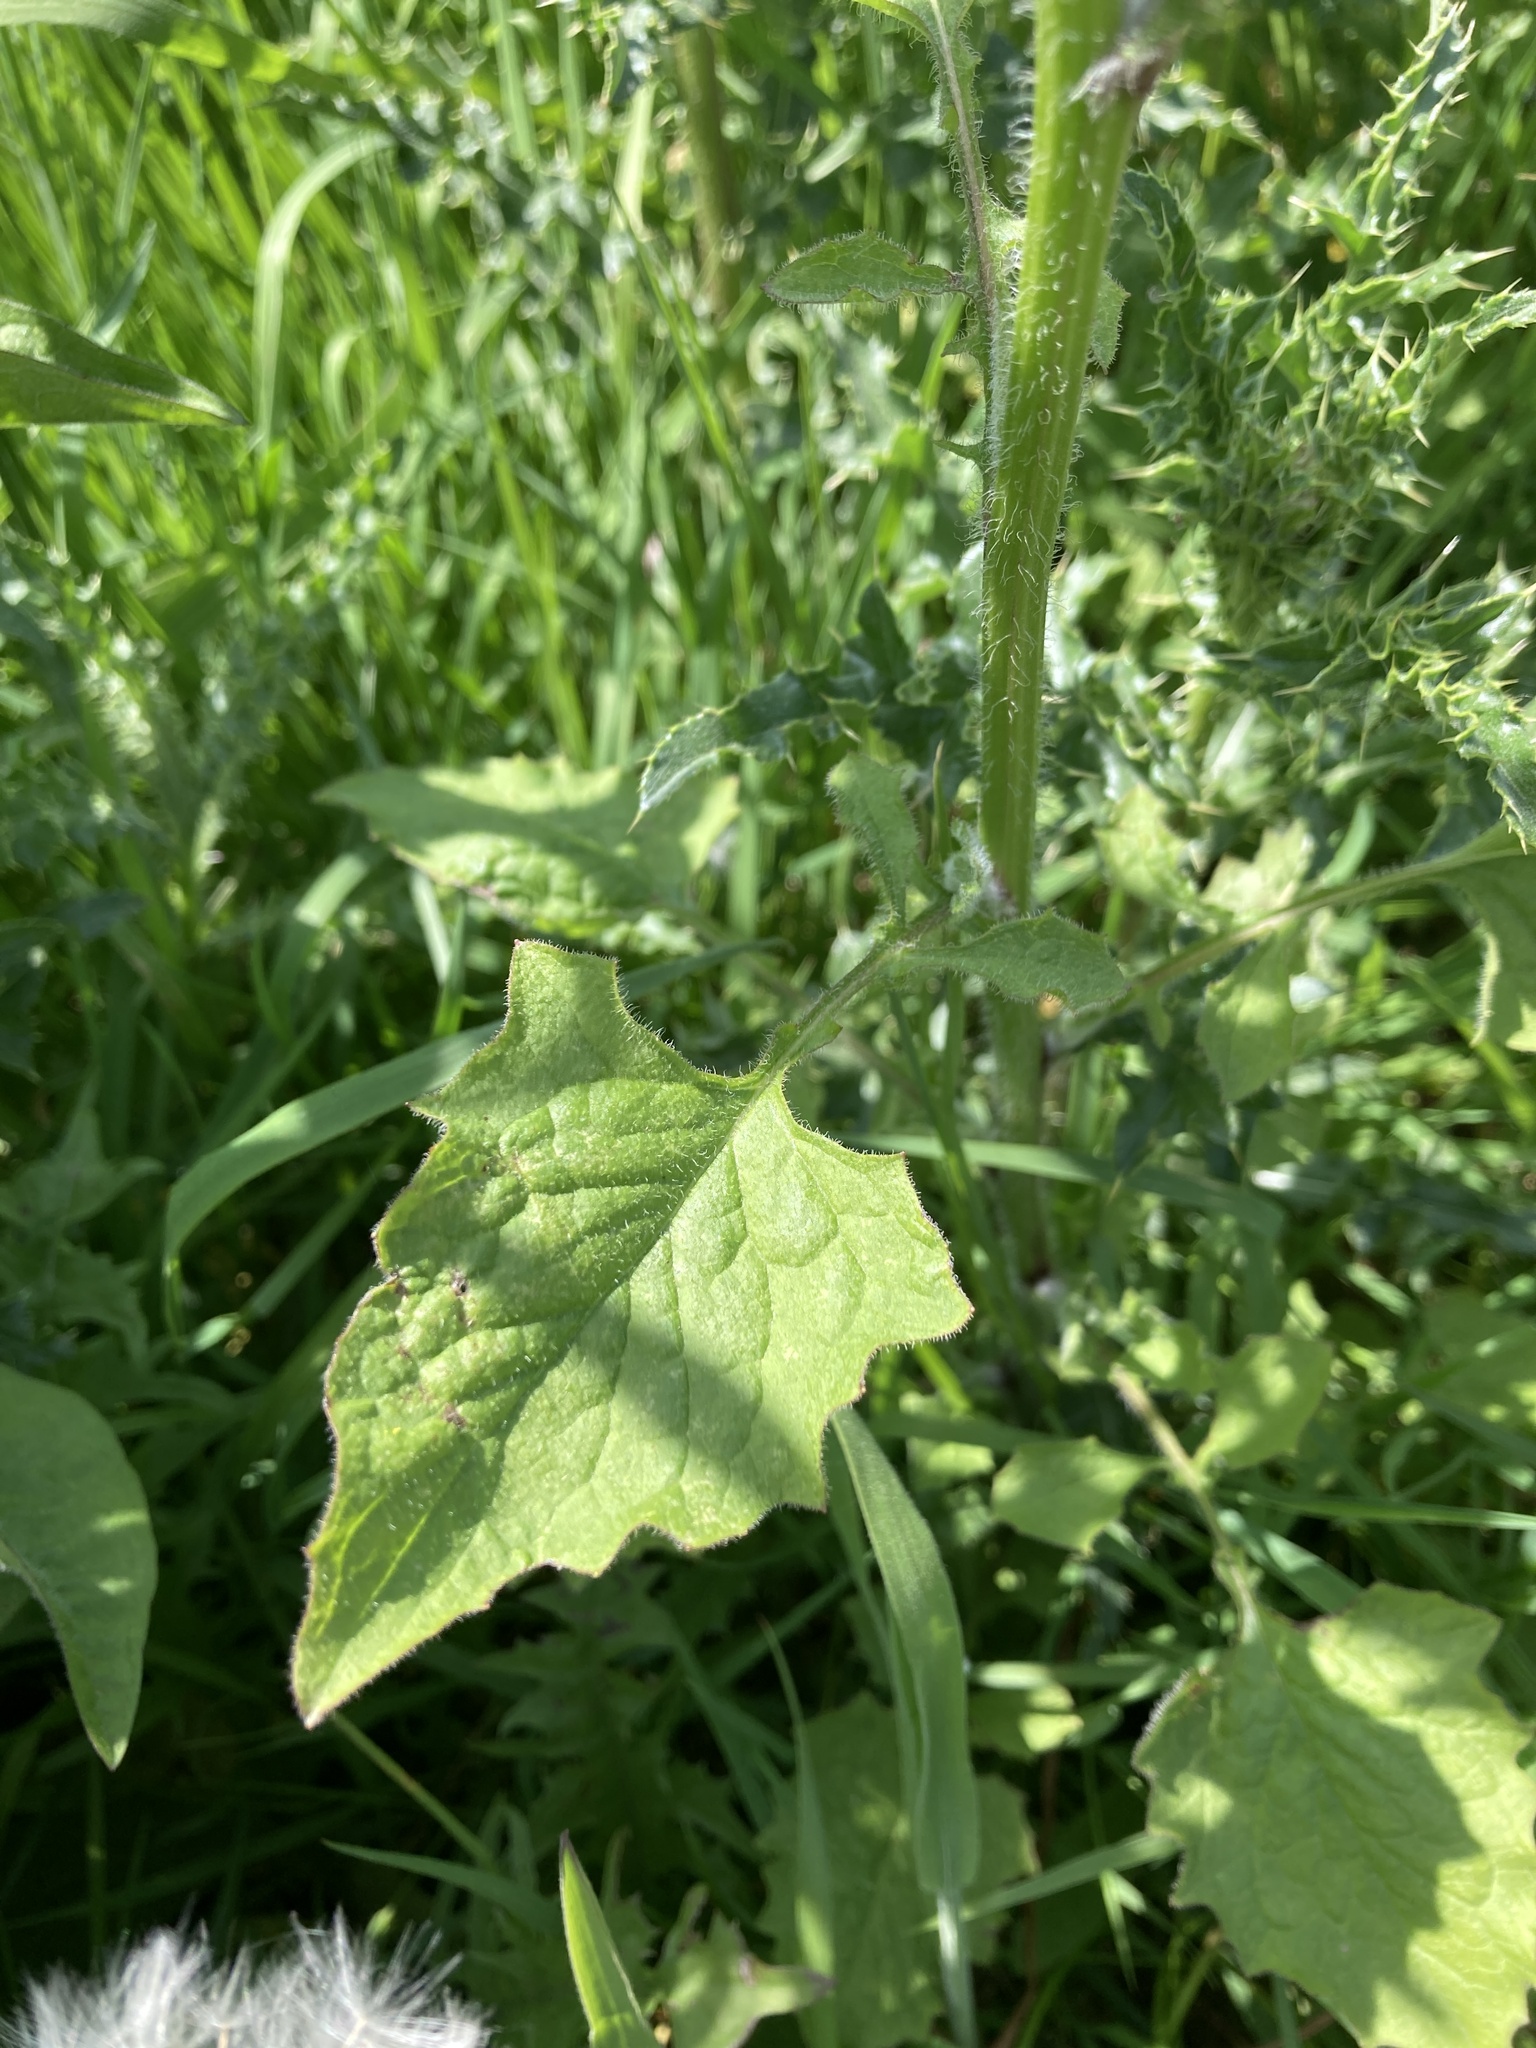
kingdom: Plantae
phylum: Tracheophyta
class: Magnoliopsida
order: Asterales
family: Asteraceae
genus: Lapsana
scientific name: Lapsana communis
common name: Nipplewort
